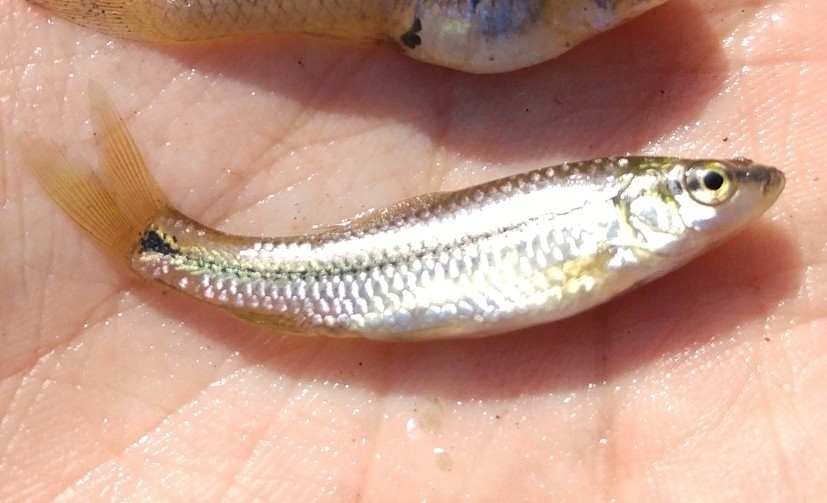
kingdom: Animalia
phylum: Chordata
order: Cypriniformes
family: Cyprinidae
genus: Pseudorasbora
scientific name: Pseudorasbora parva
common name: Topmouth gudgeon
